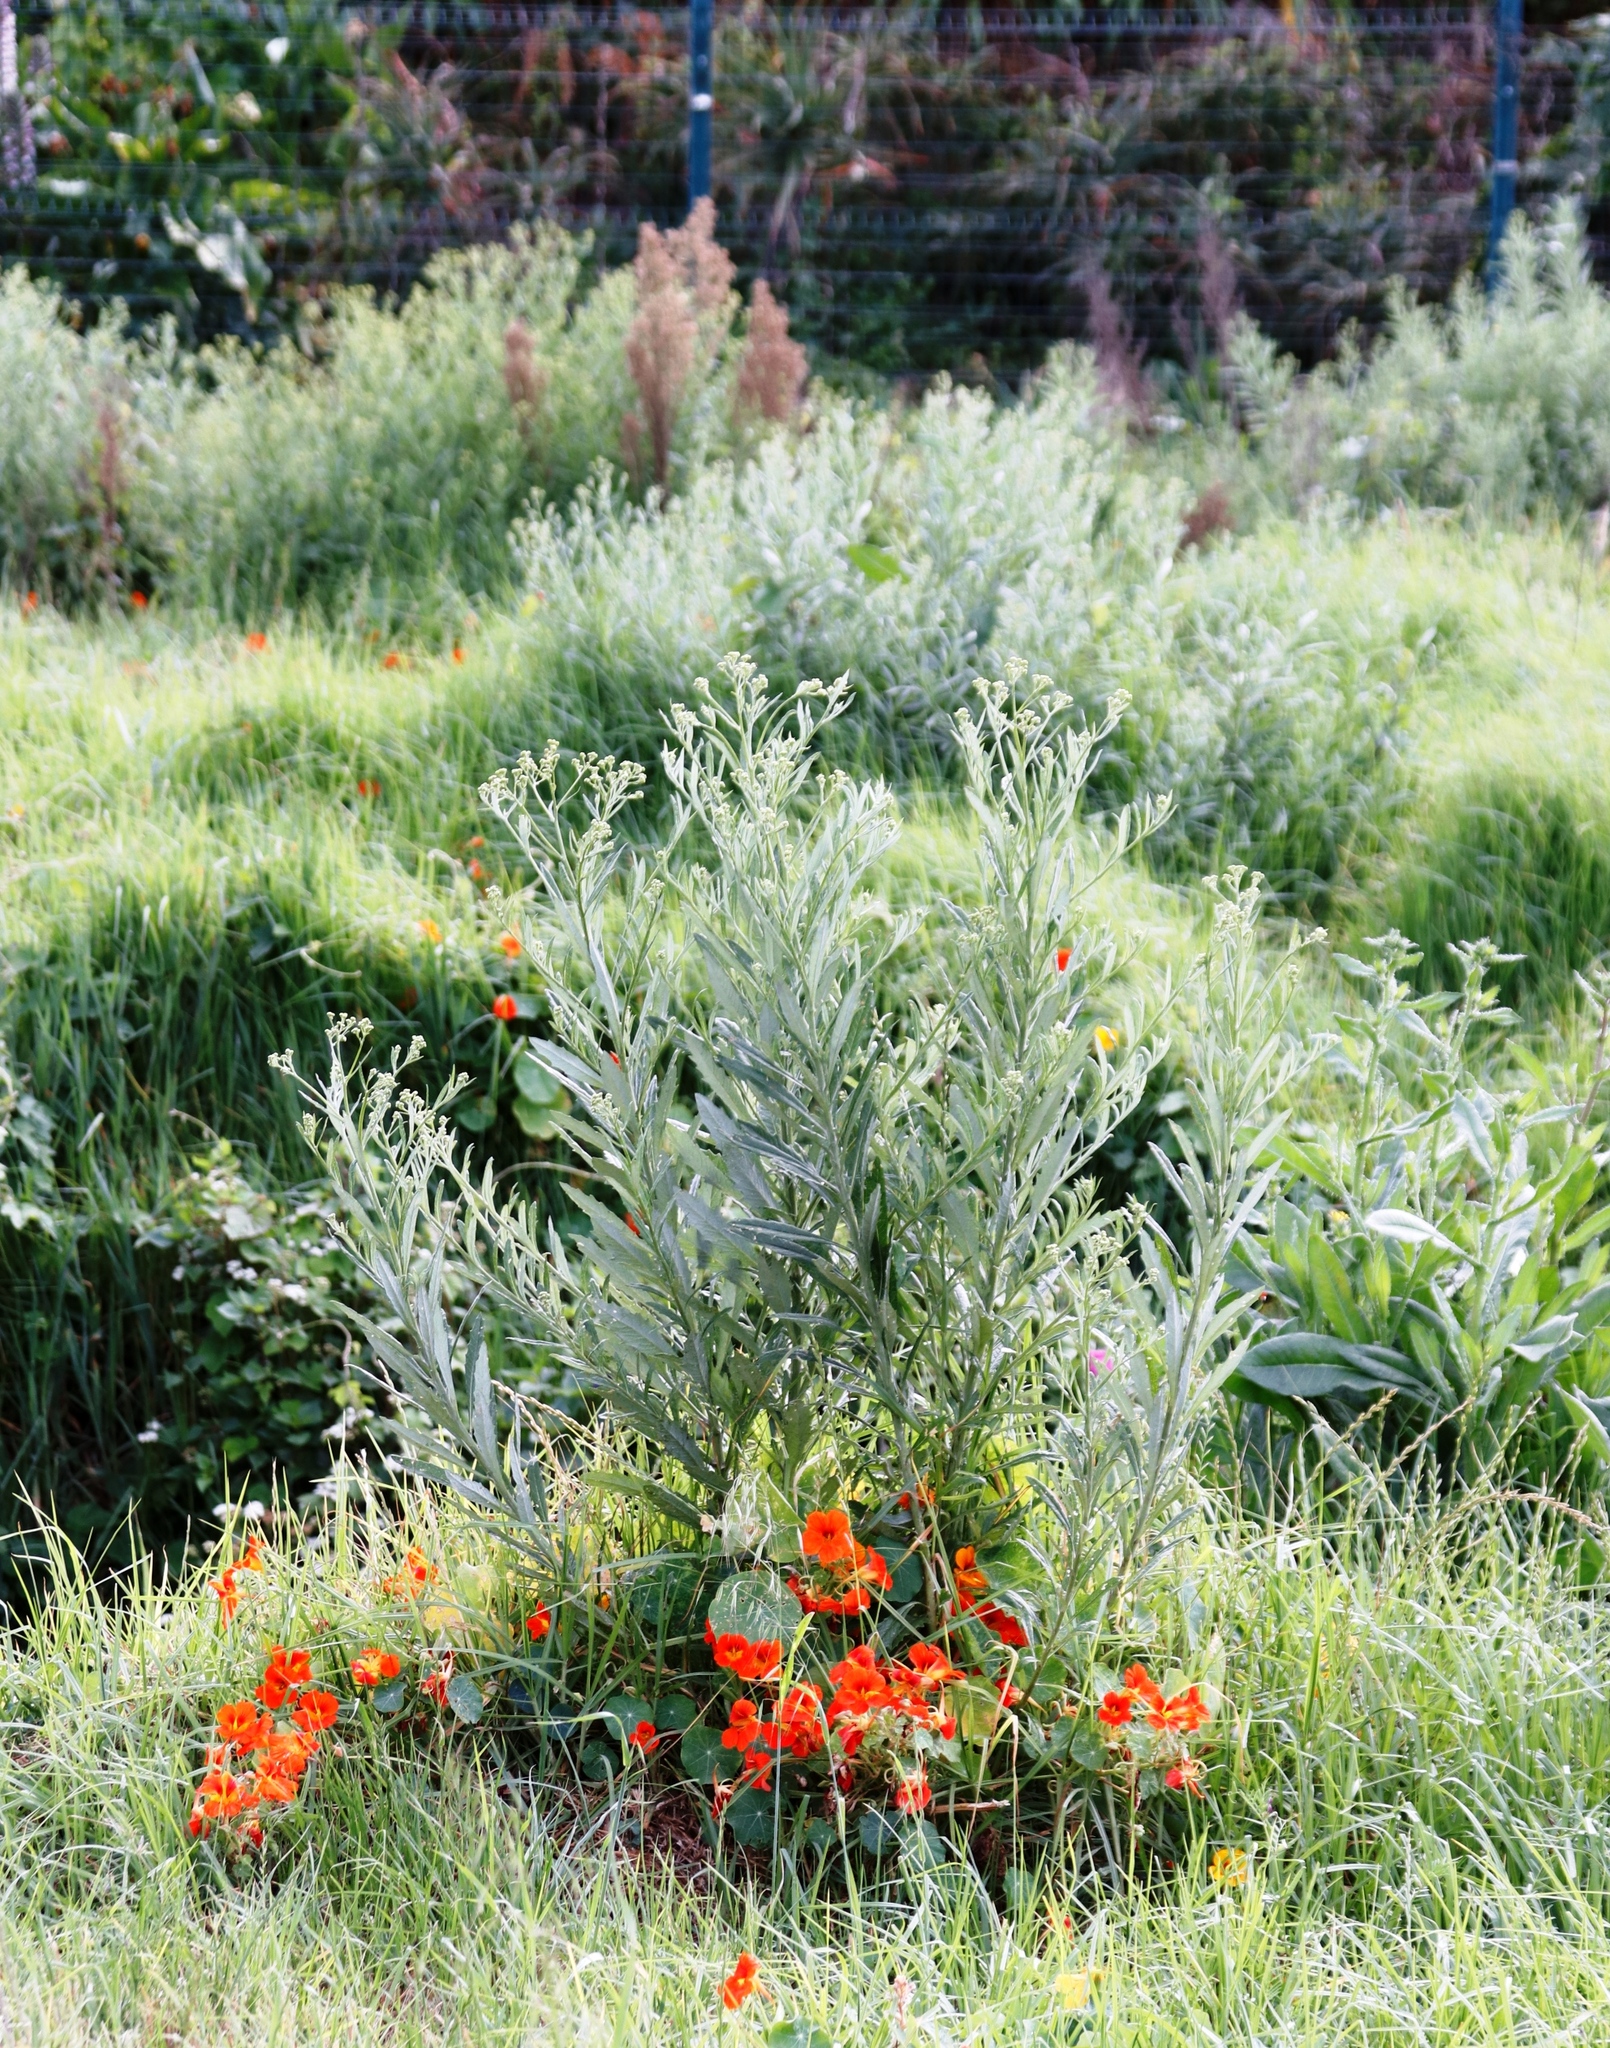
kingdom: Plantae
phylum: Tracheophyta
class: Magnoliopsida
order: Asterales
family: Asteraceae
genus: Senecio
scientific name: Senecio pterophorus
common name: Shoddy ragwort
